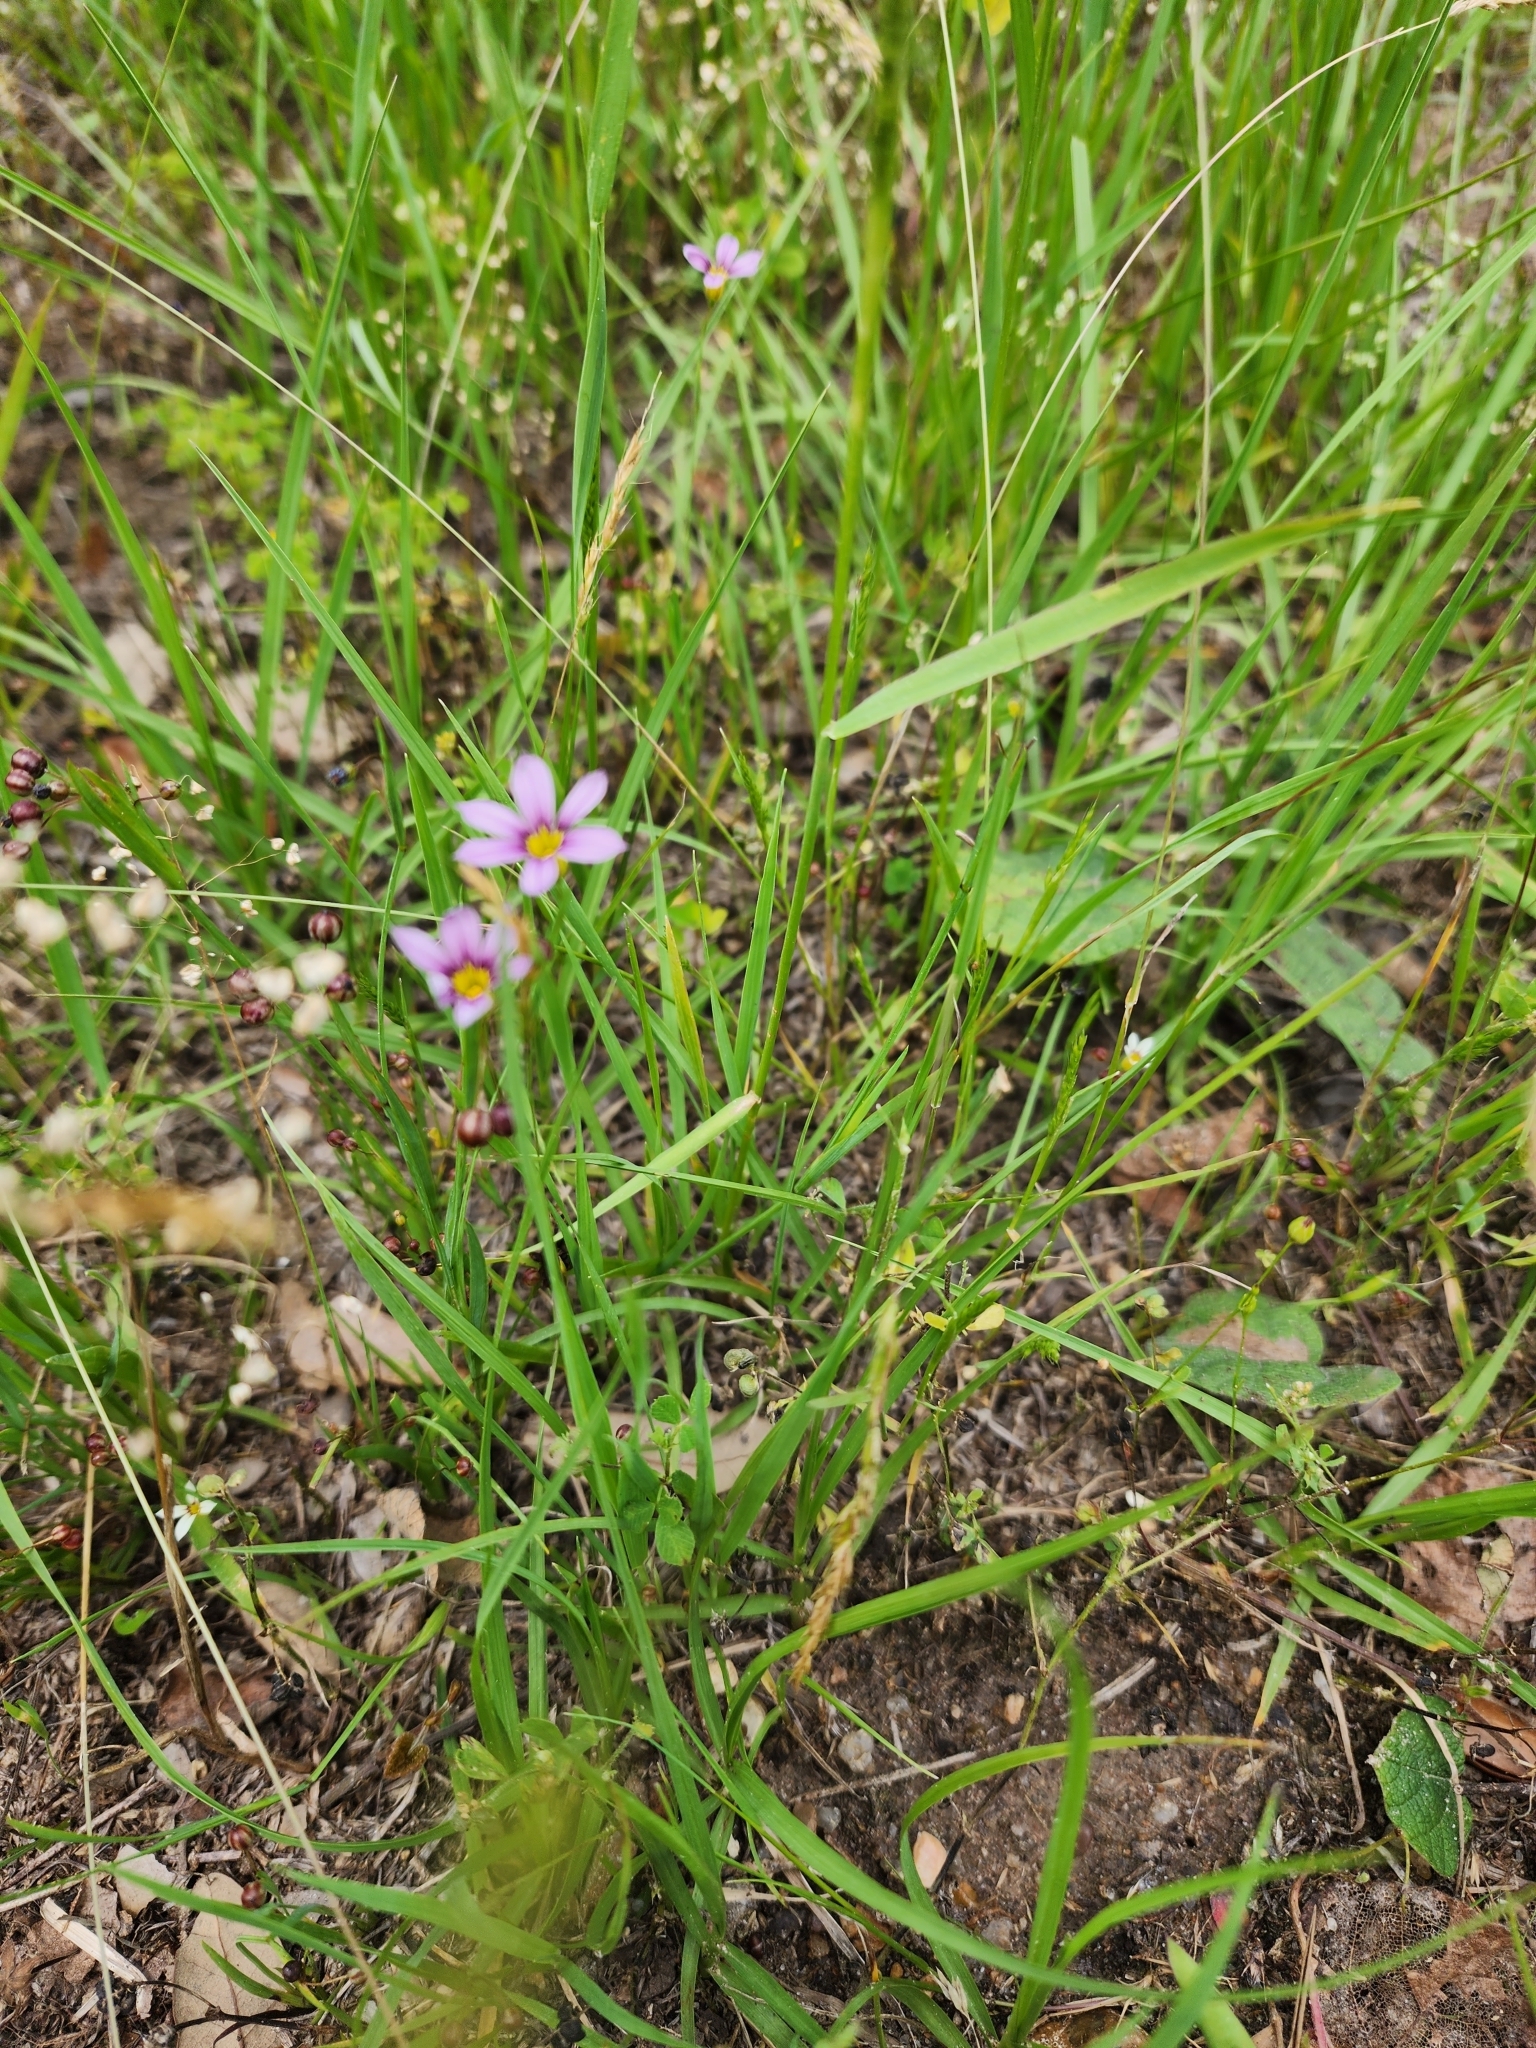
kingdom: Plantae
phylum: Tracheophyta
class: Liliopsida
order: Asparagales
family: Iridaceae
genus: Sisyrinchium
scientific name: Sisyrinchium micranthum
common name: Bermuda pigroot
